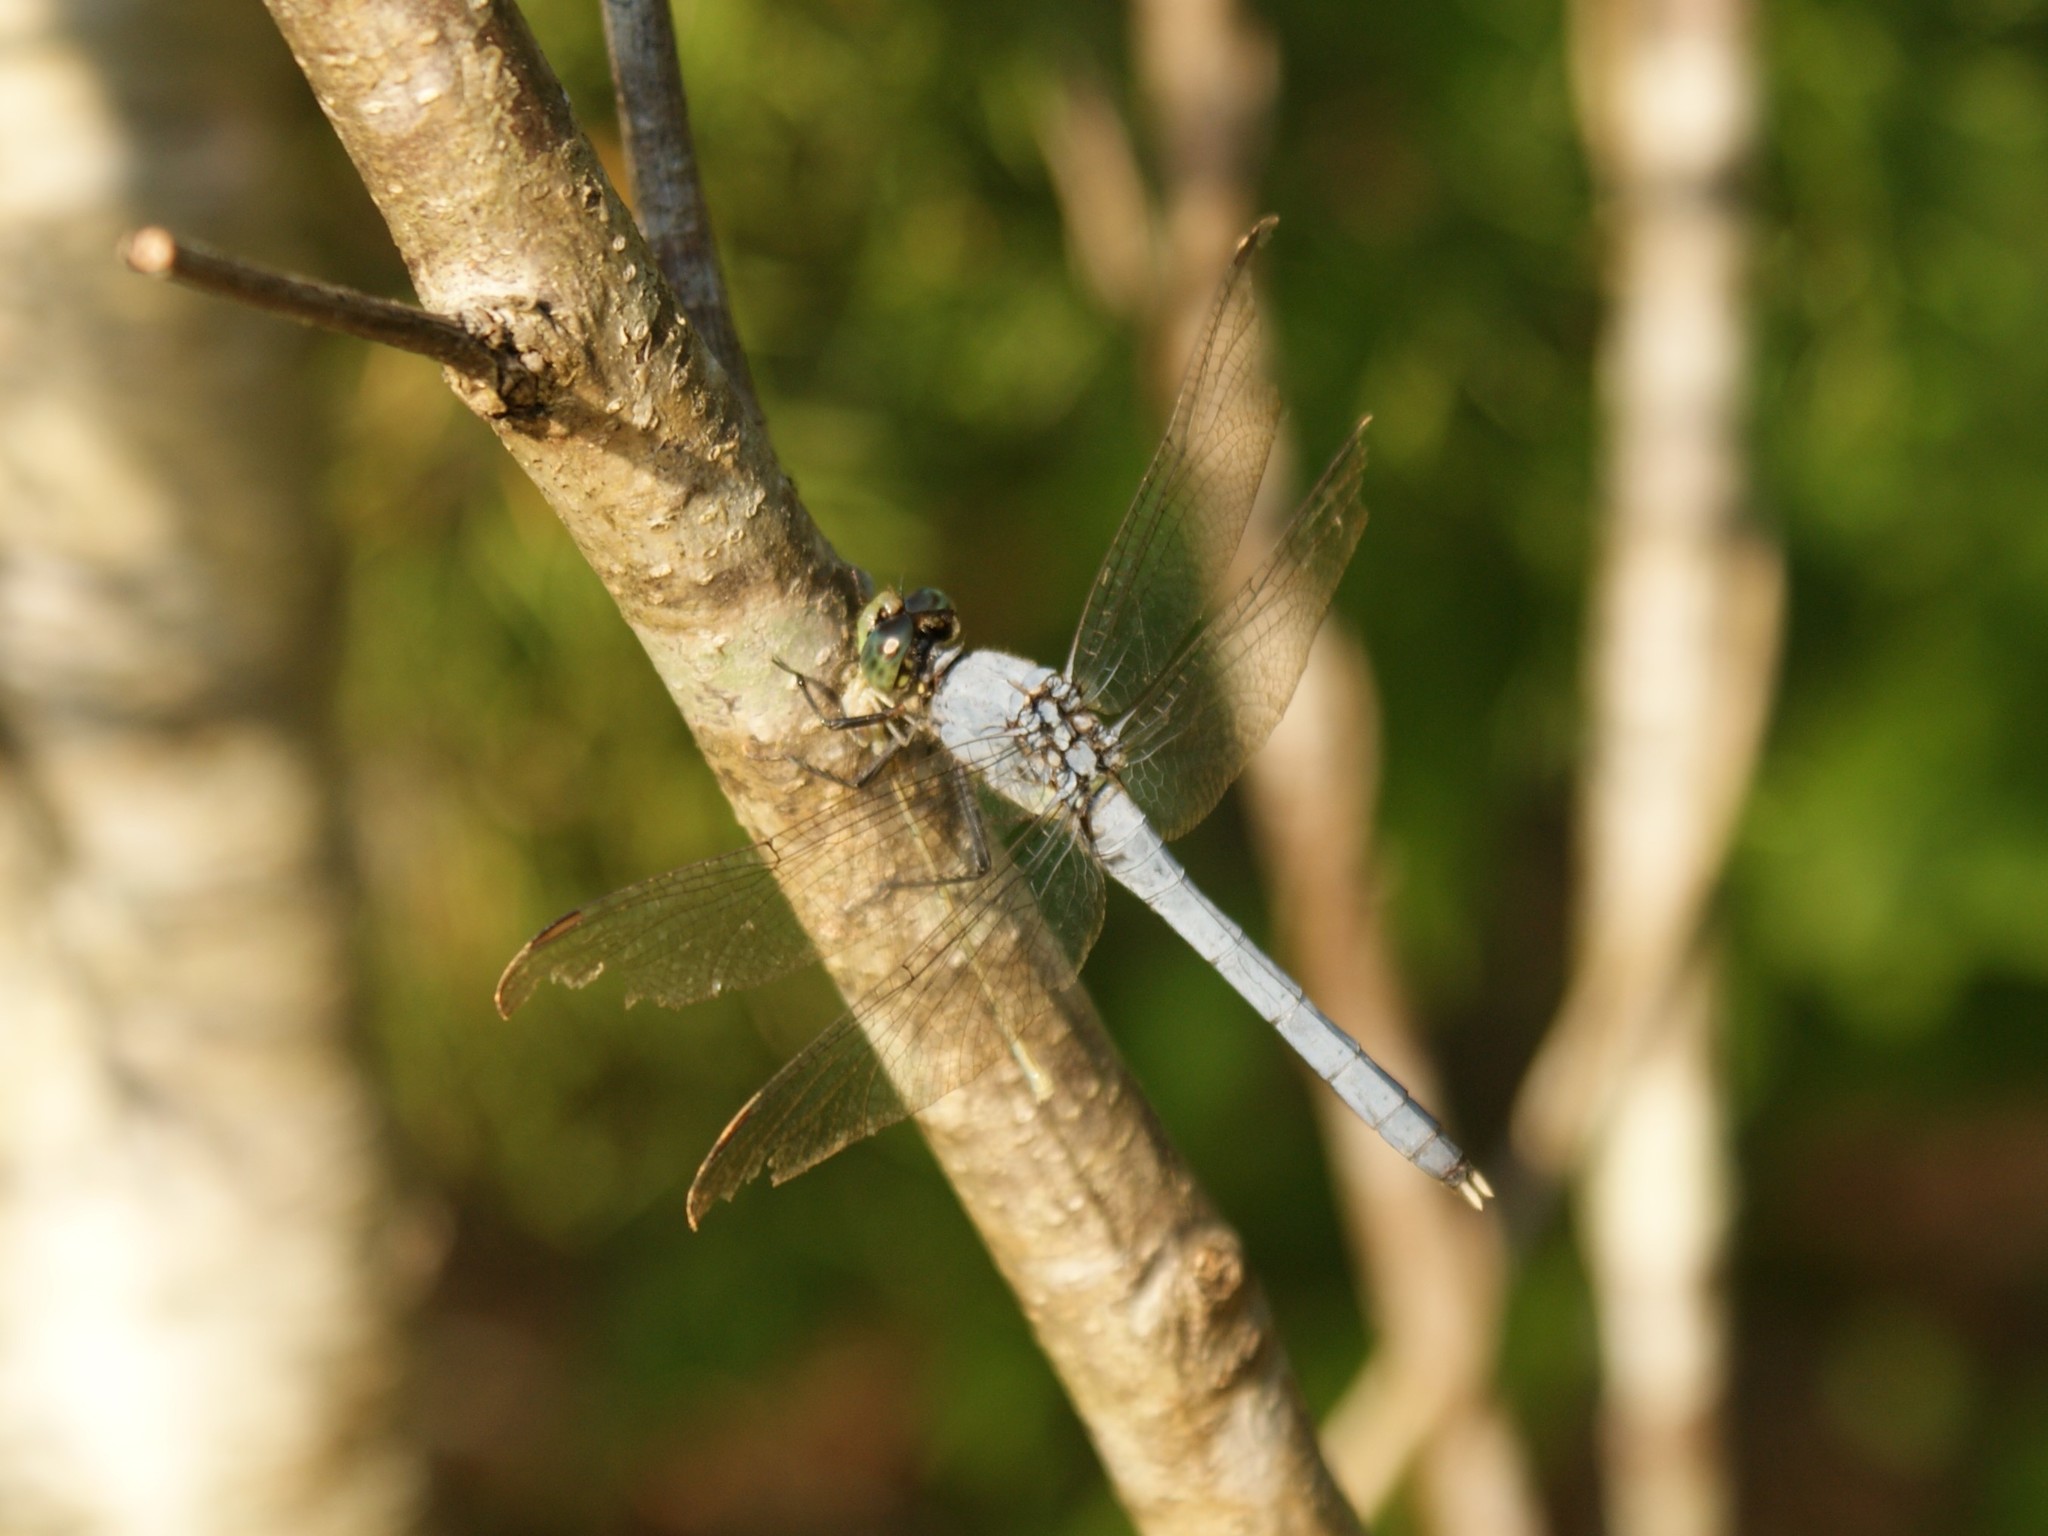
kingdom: Animalia
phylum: Arthropoda
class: Insecta
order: Odonata
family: Libellulidae
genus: Erythemis
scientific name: Erythemis simplicicollis
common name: Eastern pondhawk
